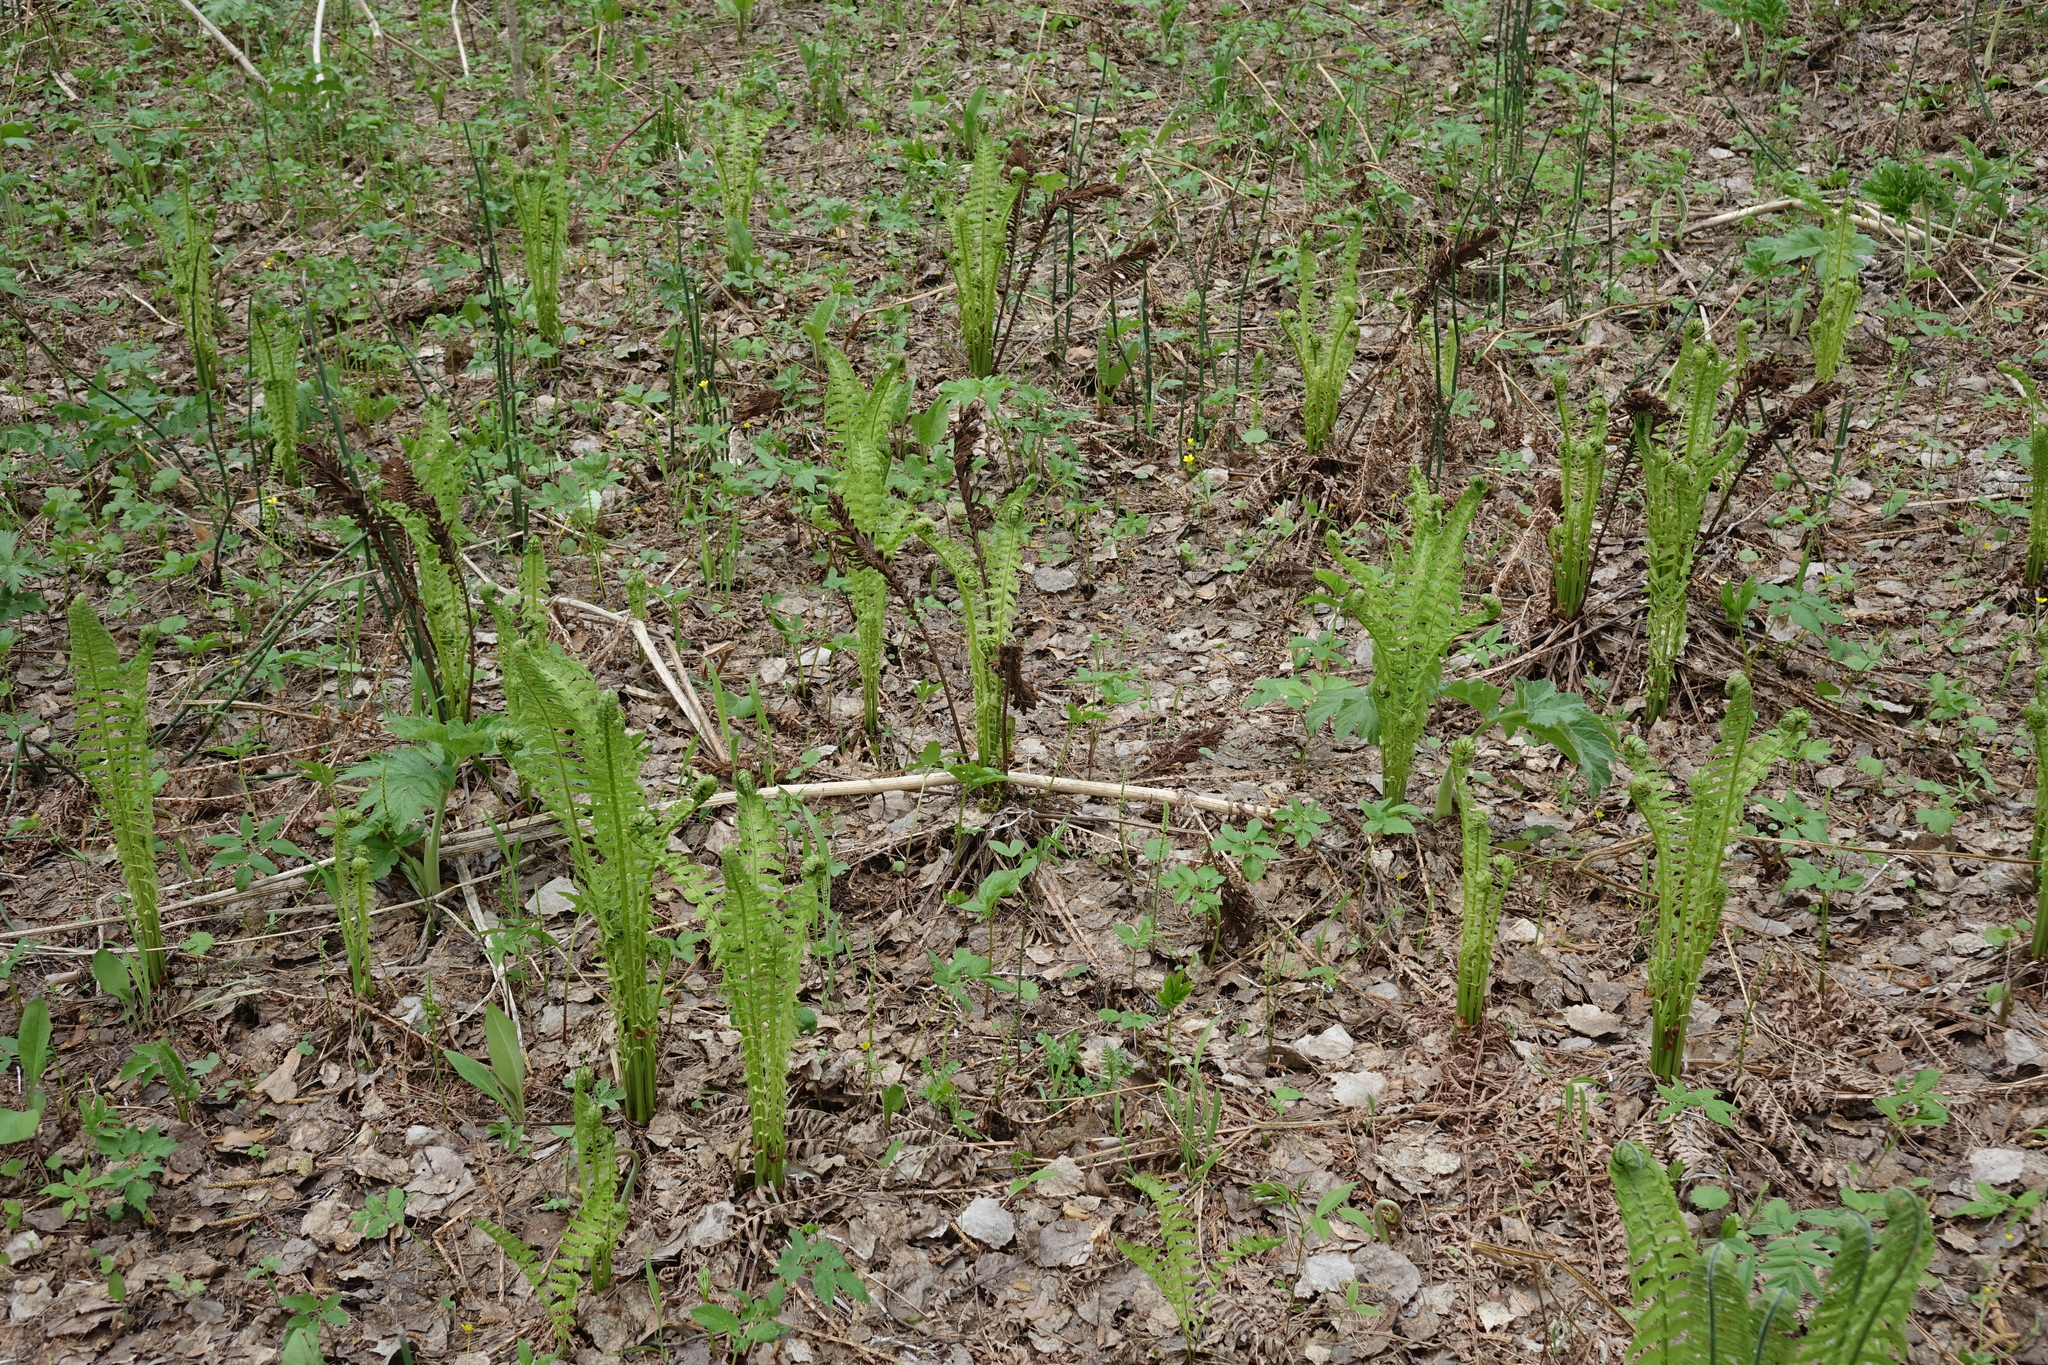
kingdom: Plantae
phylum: Tracheophyta
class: Polypodiopsida
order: Polypodiales
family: Onocleaceae
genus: Matteuccia
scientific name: Matteuccia struthiopteris
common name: Ostrich fern
